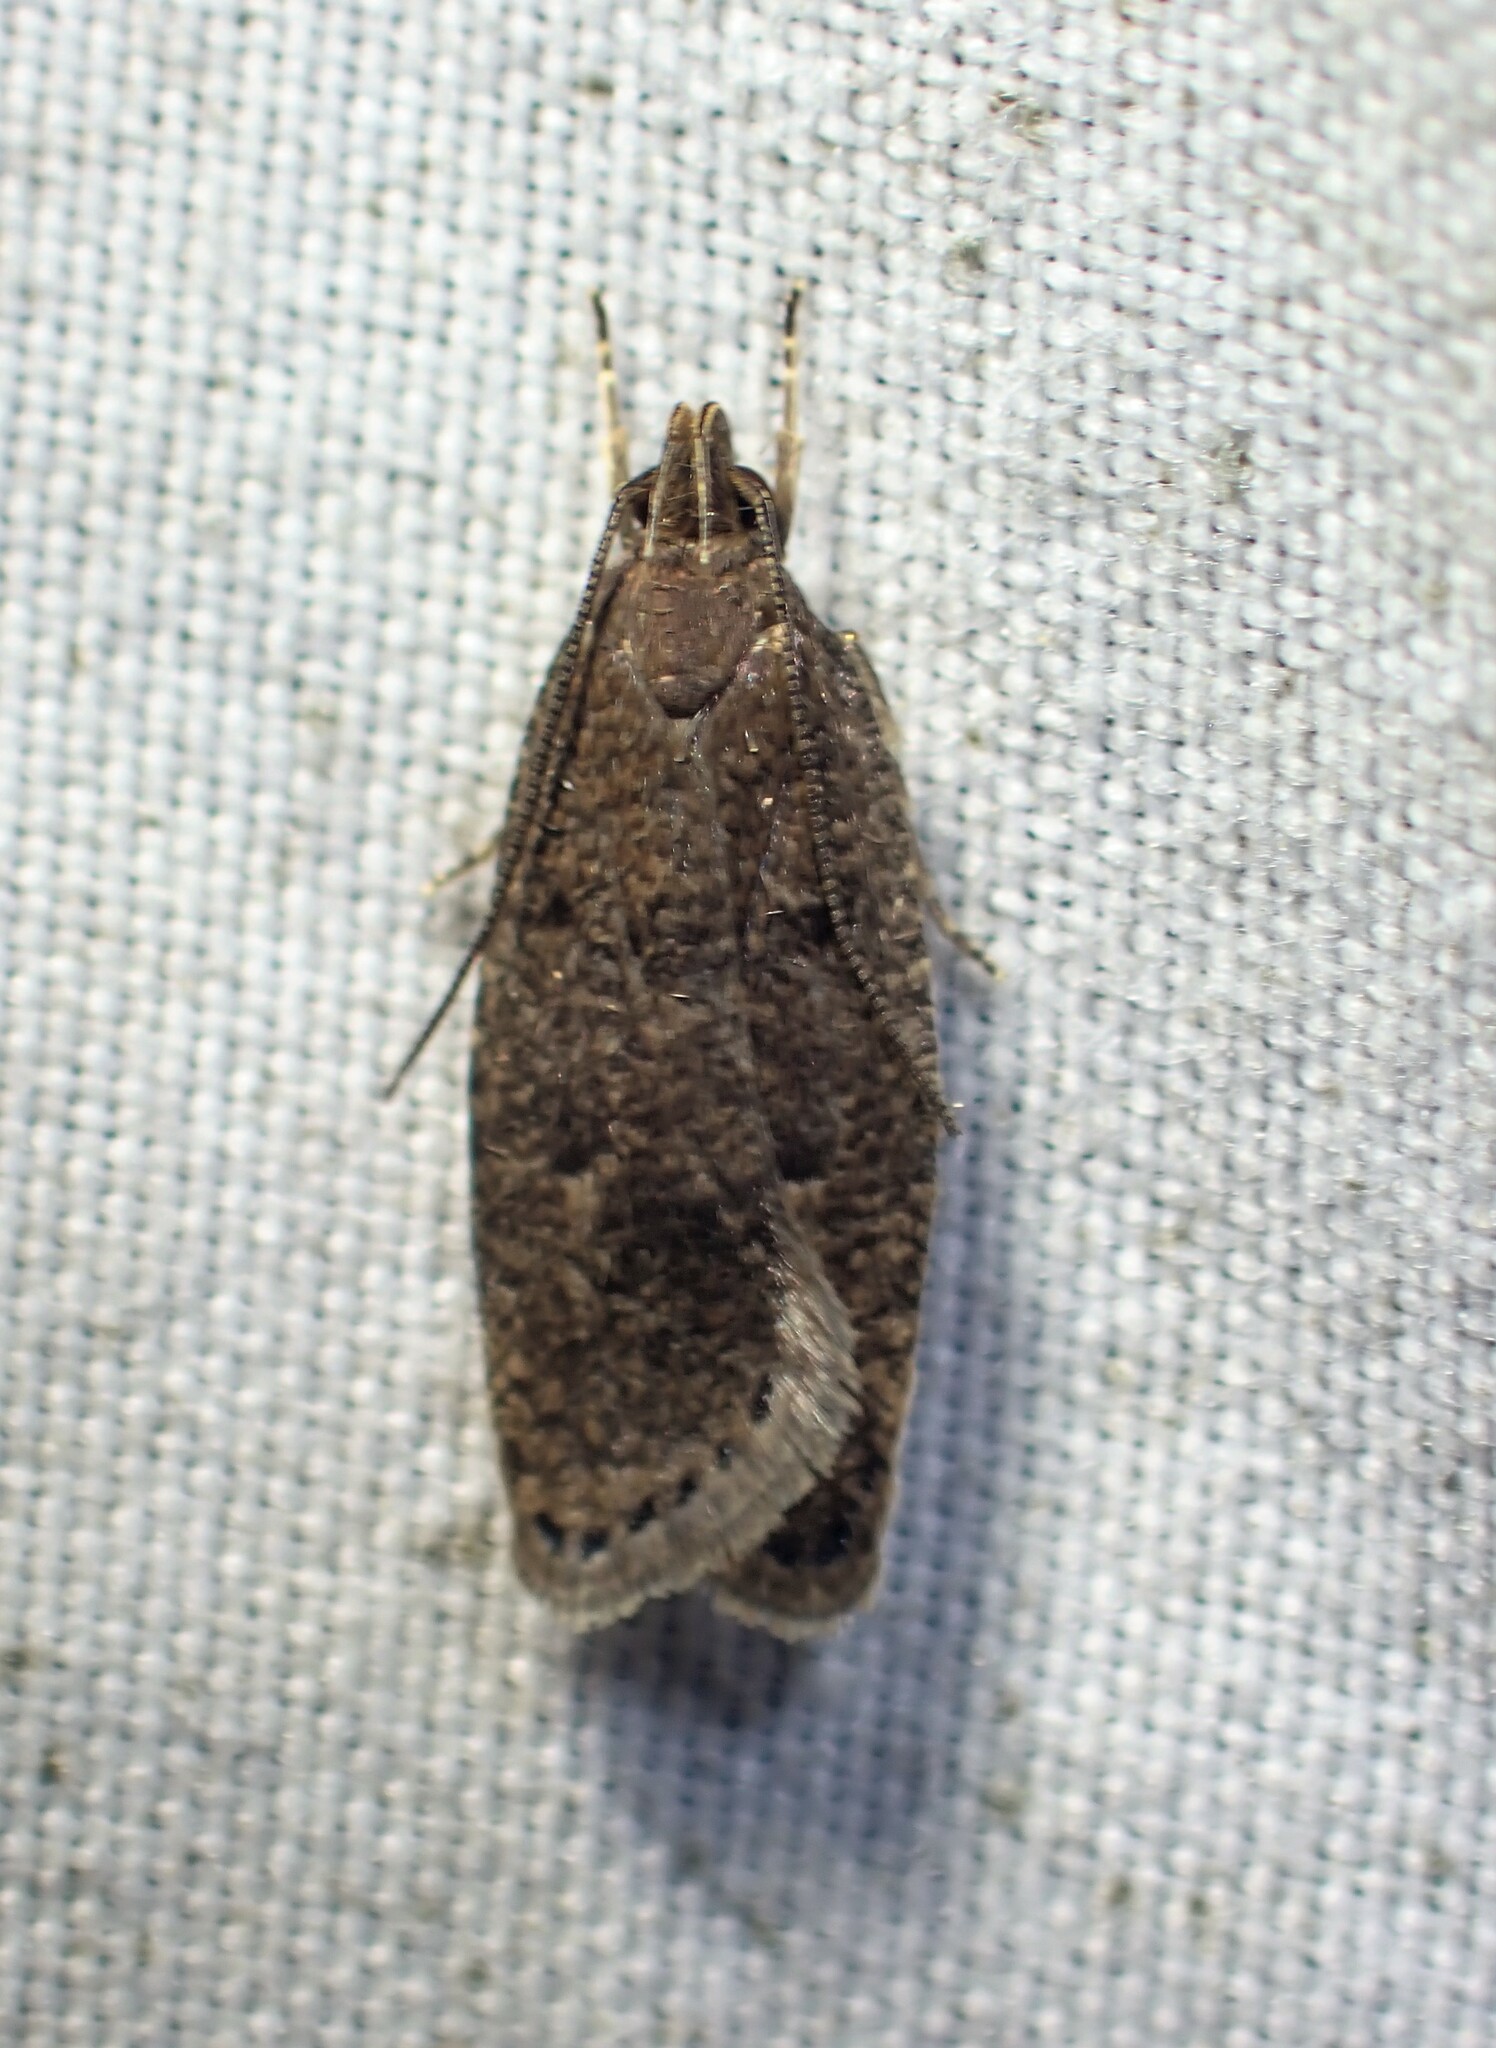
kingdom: Animalia
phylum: Arthropoda
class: Insecta
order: Lepidoptera
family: Depressariidae
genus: Psilocorsis
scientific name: Psilocorsis reflexella
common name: Dotted leaftier moth
